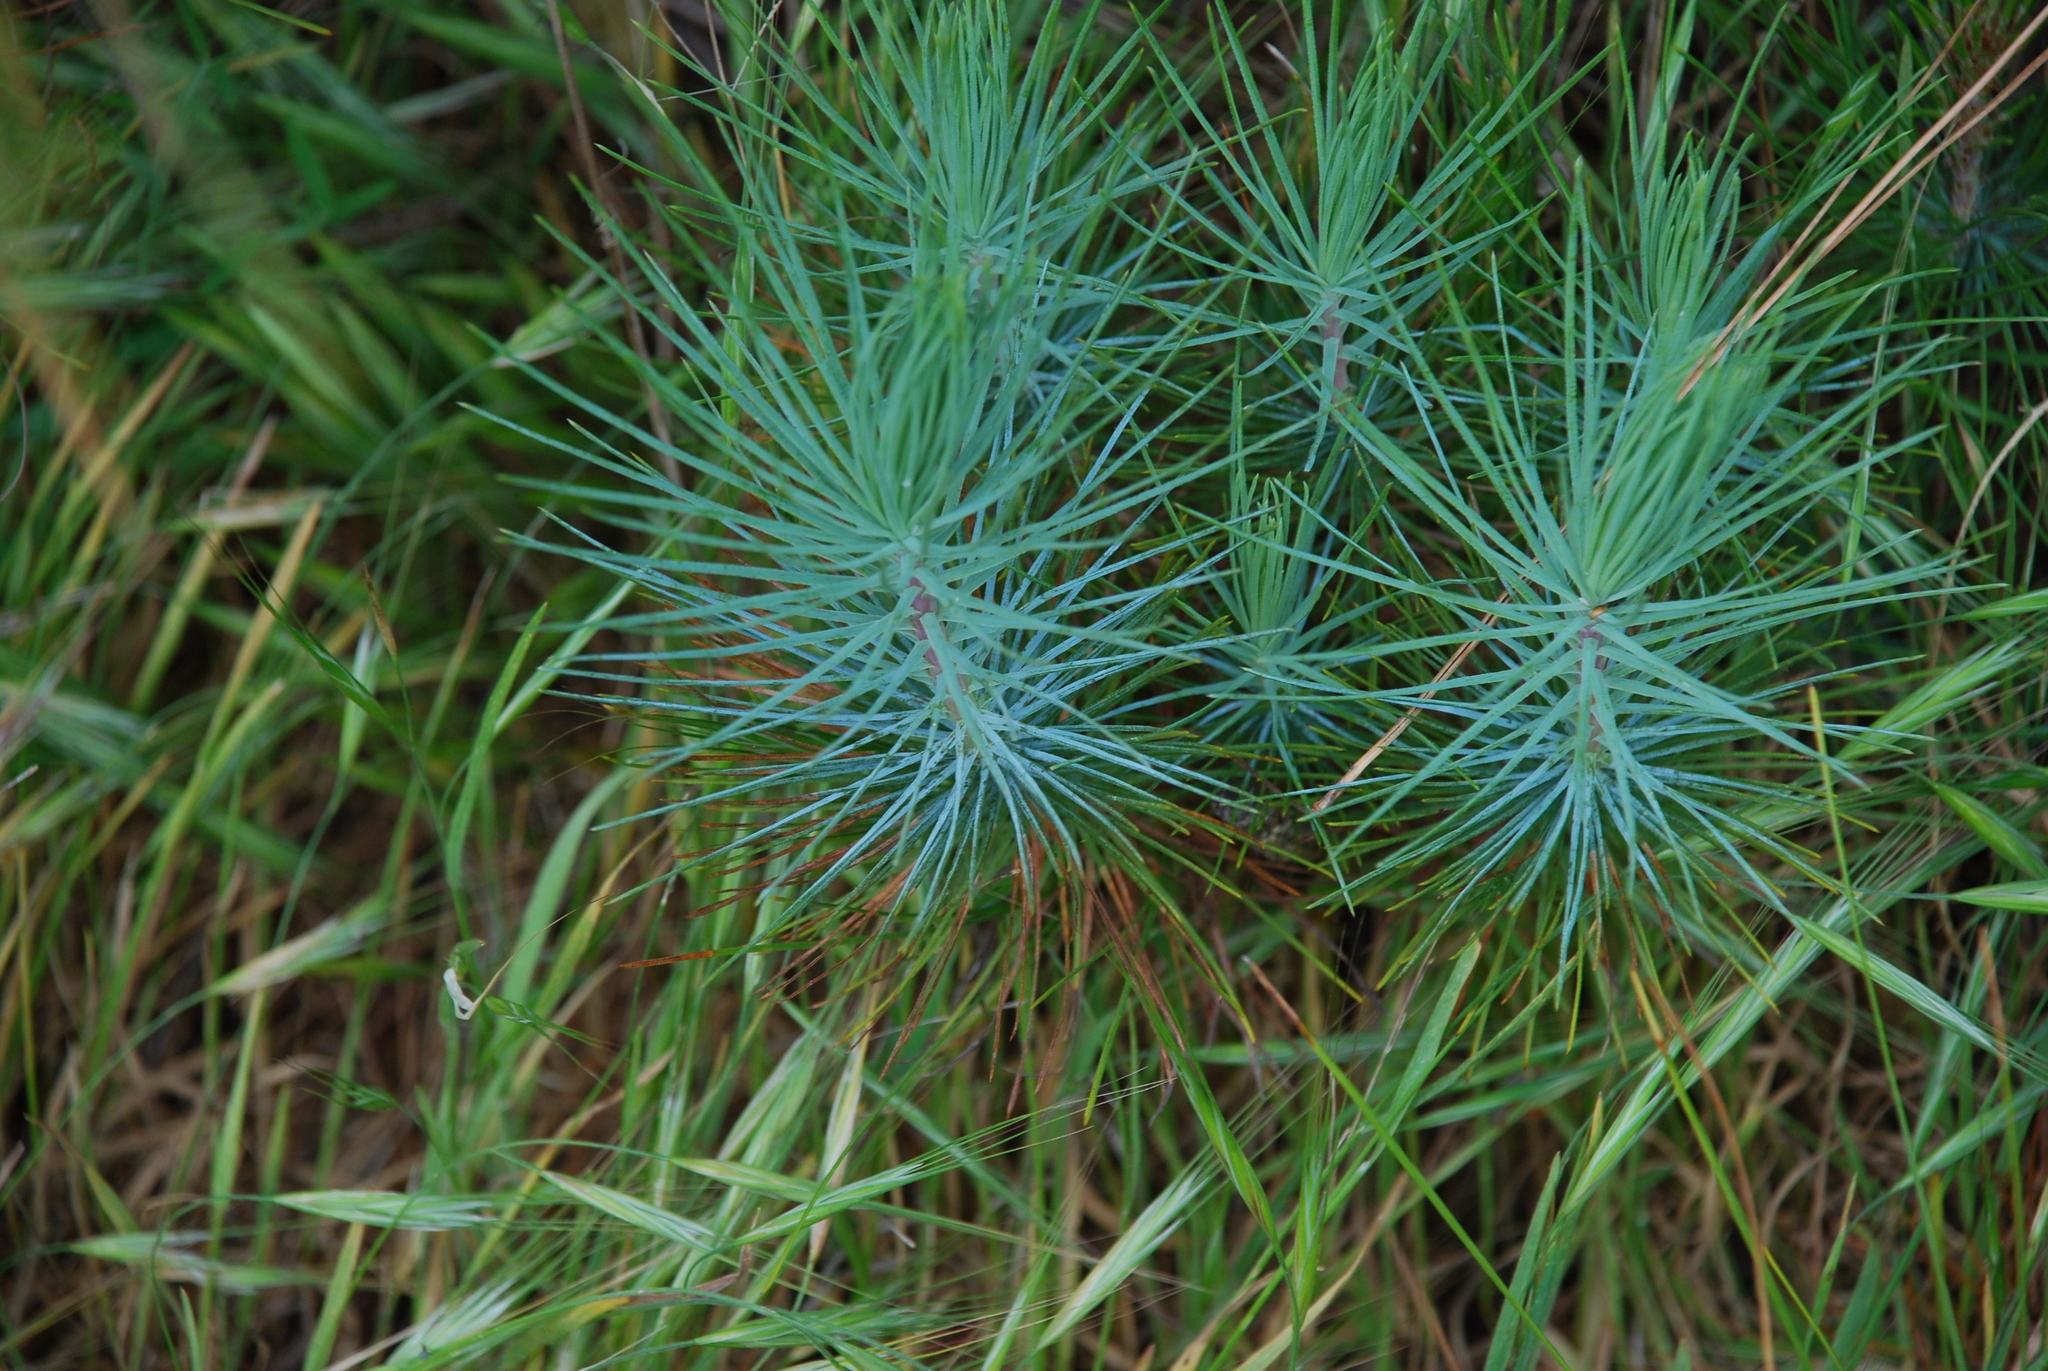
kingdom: Plantae
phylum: Tracheophyta
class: Pinopsida
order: Pinales
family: Pinaceae
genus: Pinus
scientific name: Pinus canariensis
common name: Canary islands pine
